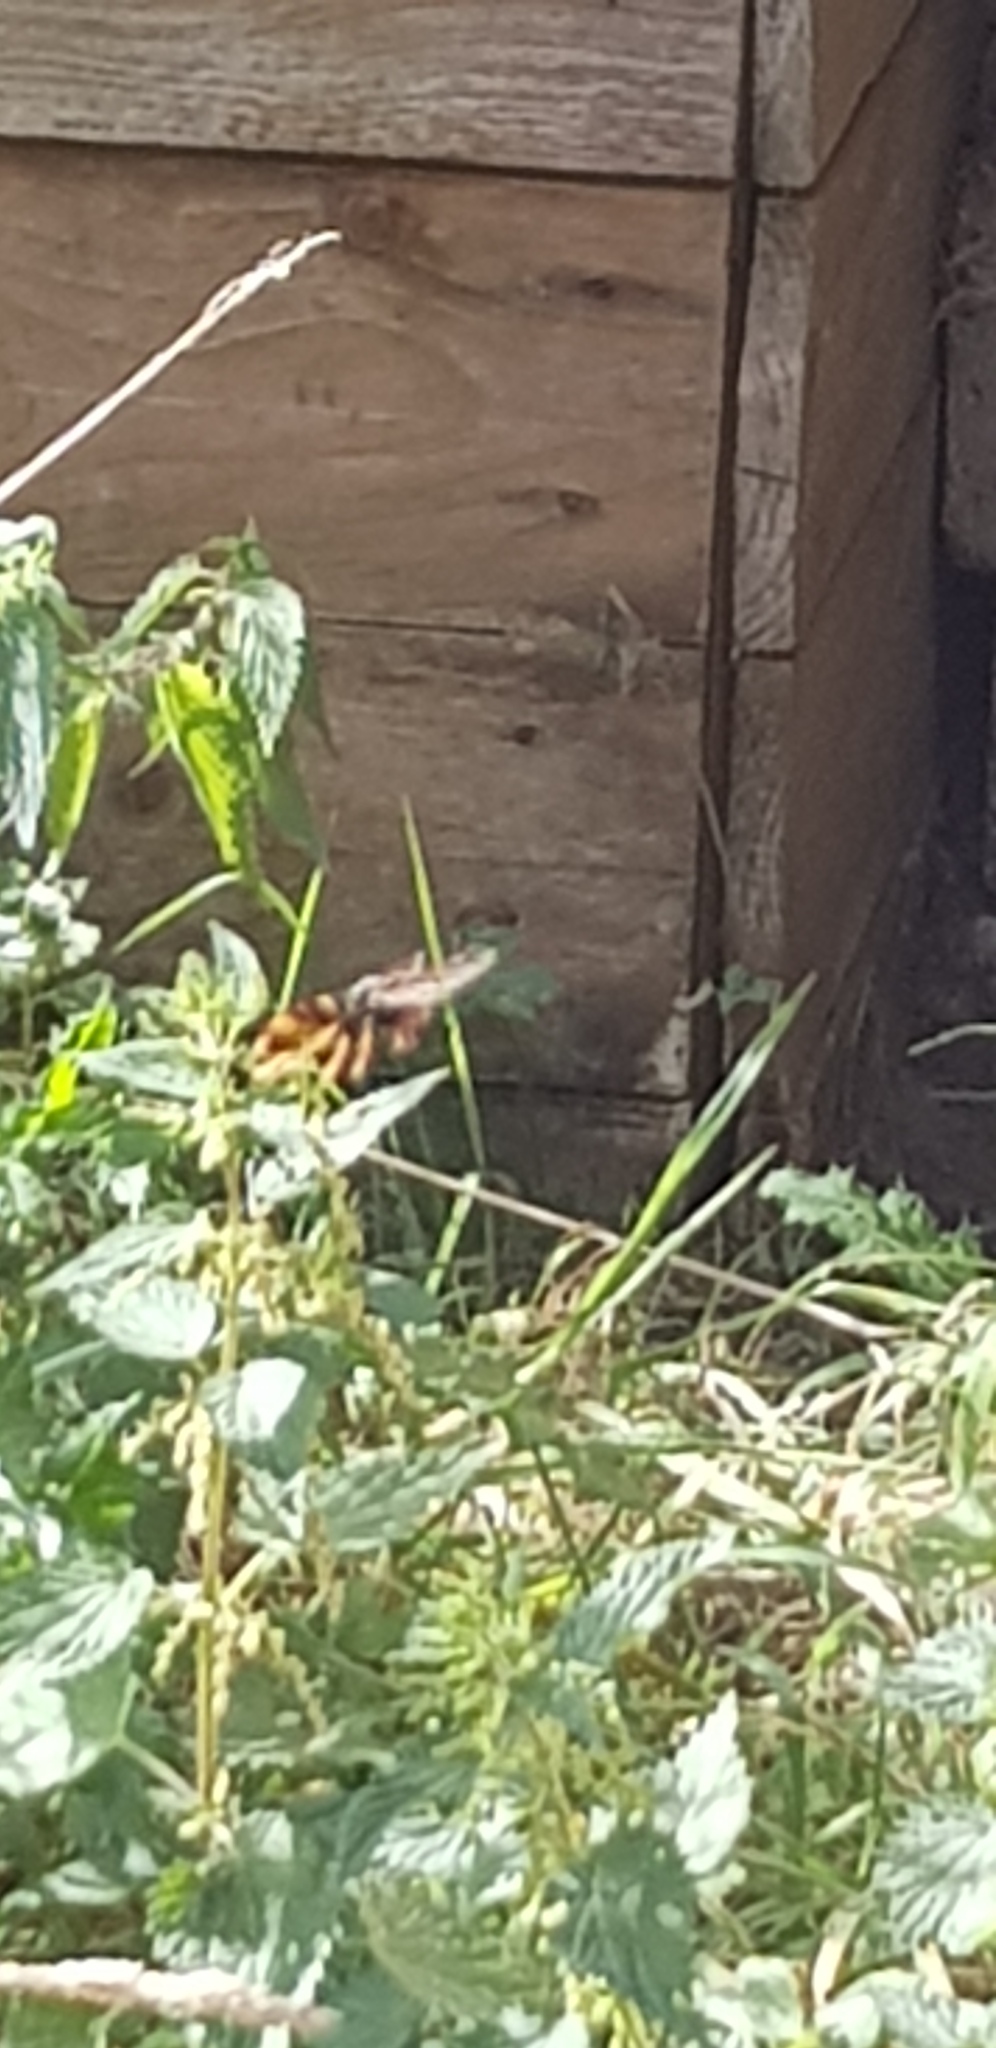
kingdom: Animalia
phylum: Arthropoda
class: Insecta
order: Hymenoptera
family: Vespidae
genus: Vespa
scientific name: Vespa velutina
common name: Asian hornet
